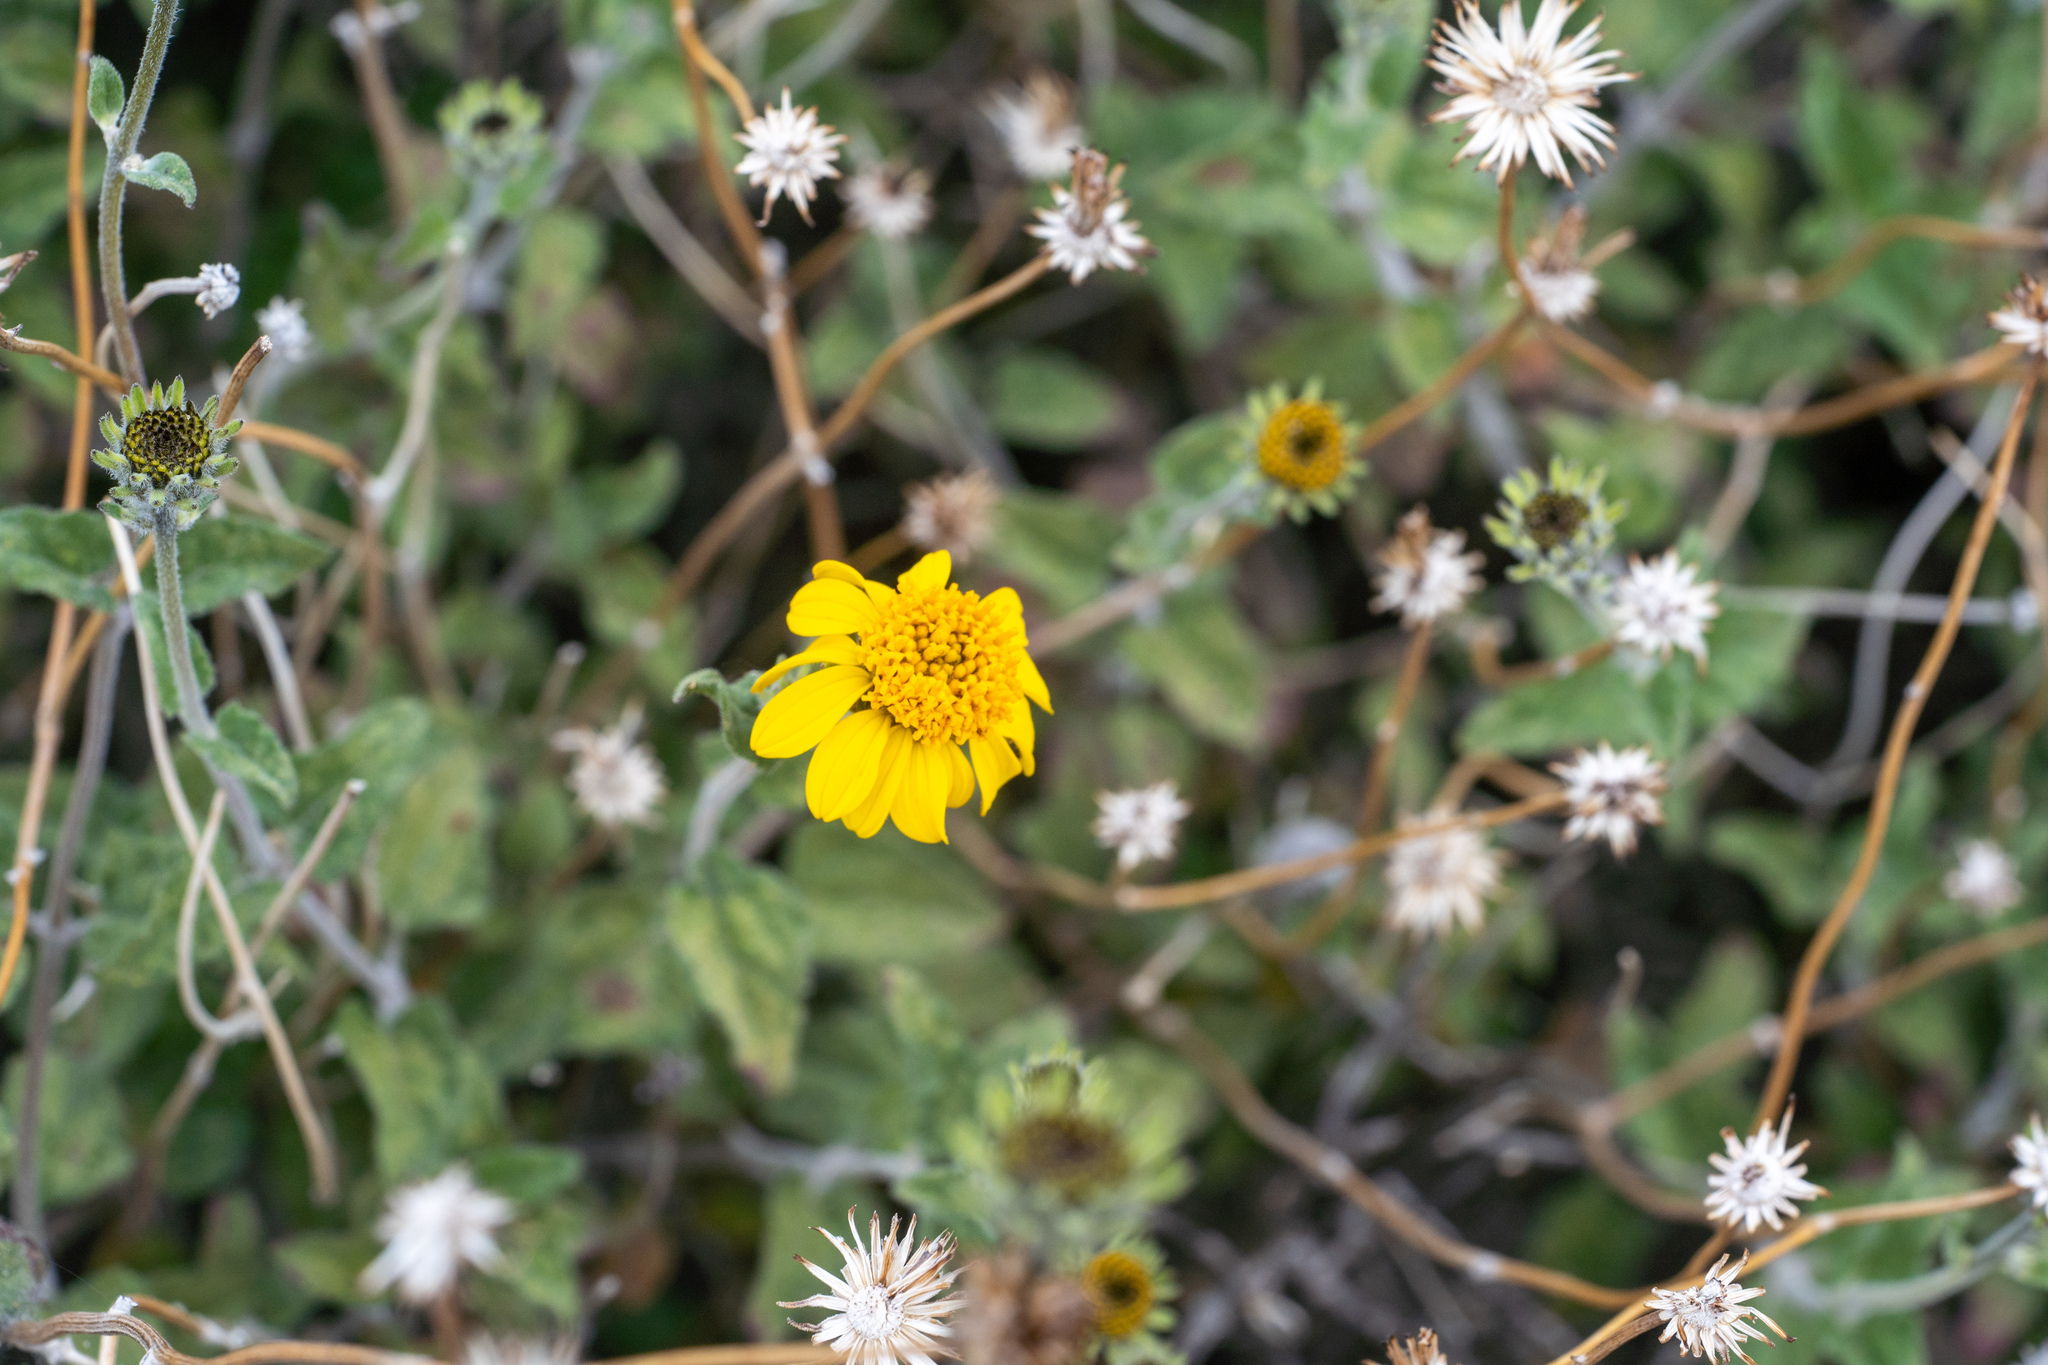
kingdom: Plantae
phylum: Tracheophyta
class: Magnoliopsida
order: Asterales
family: Asteraceae
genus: Bahiopsis
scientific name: Bahiopsis parishii
